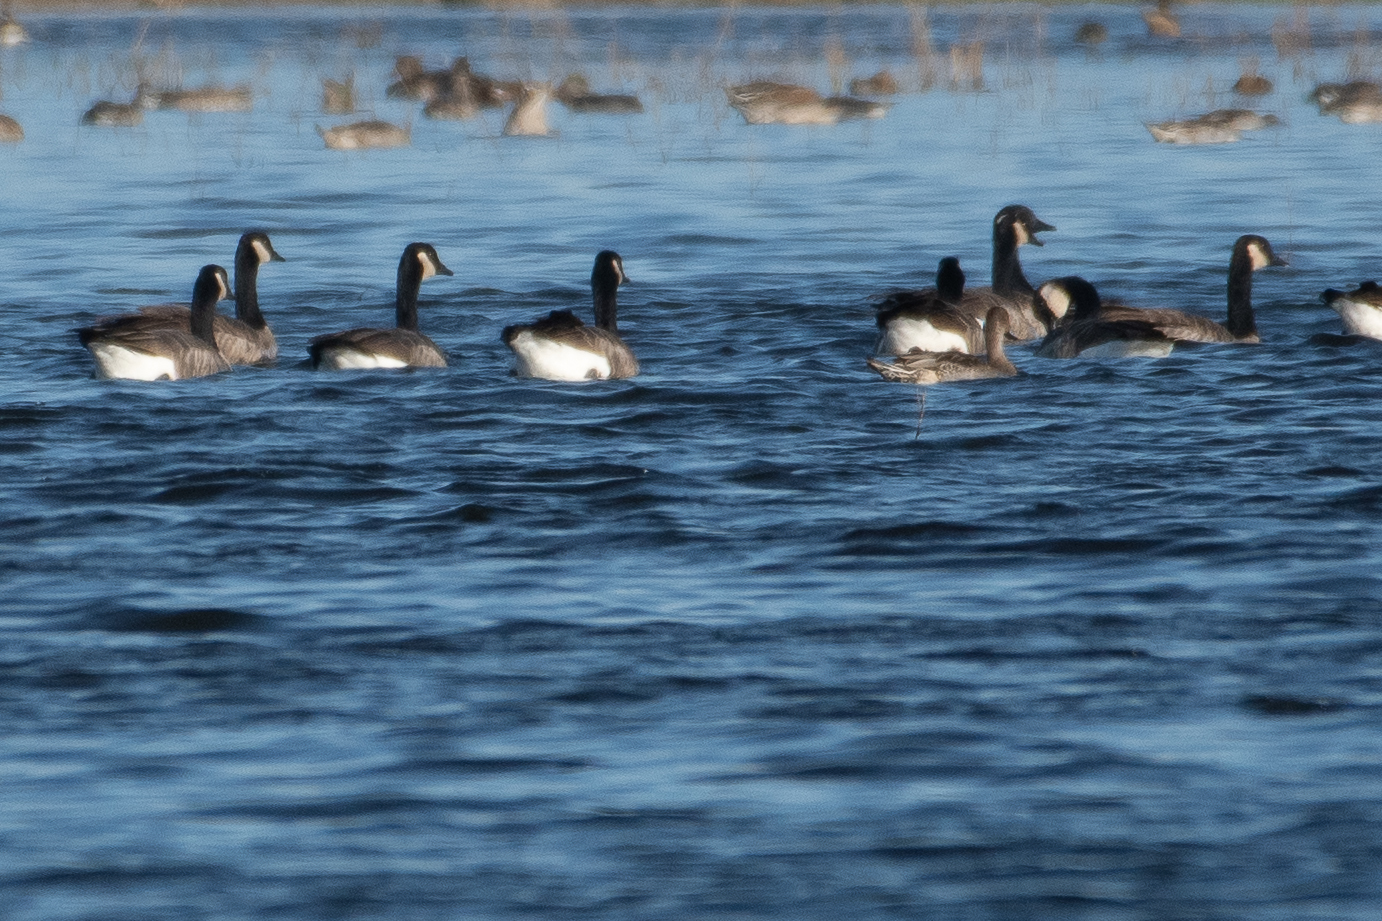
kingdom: Animalia
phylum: Chordata
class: Aves
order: Anseriformes
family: Anatidae
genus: Branta
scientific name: Branta canadensis
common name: Canada goose
